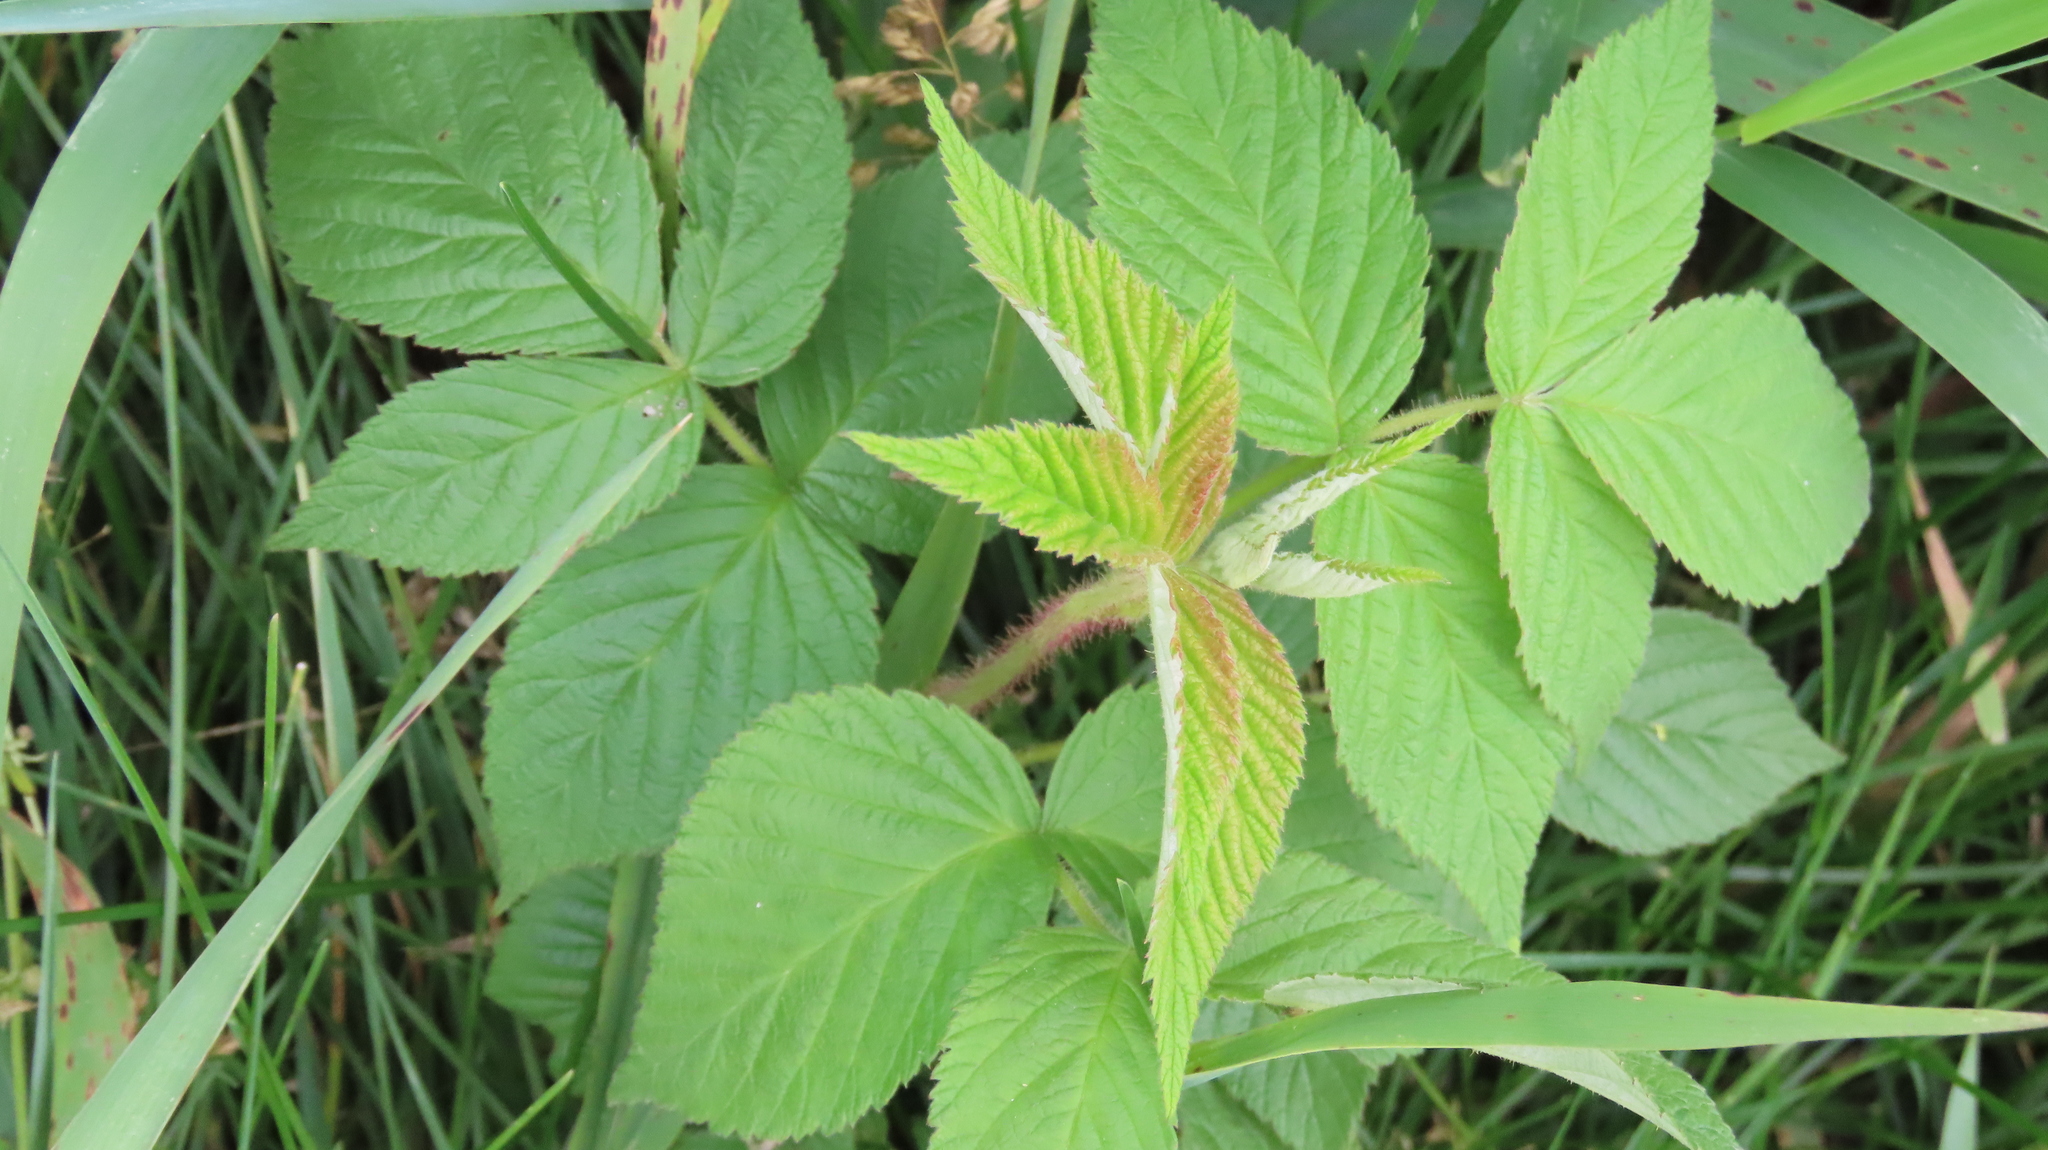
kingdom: Plantae
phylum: Tracheophyta
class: Magnoliopsida
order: Rosales
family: Rosaceae
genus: Rubus
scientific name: Rubus idaeus
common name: Raspberry
